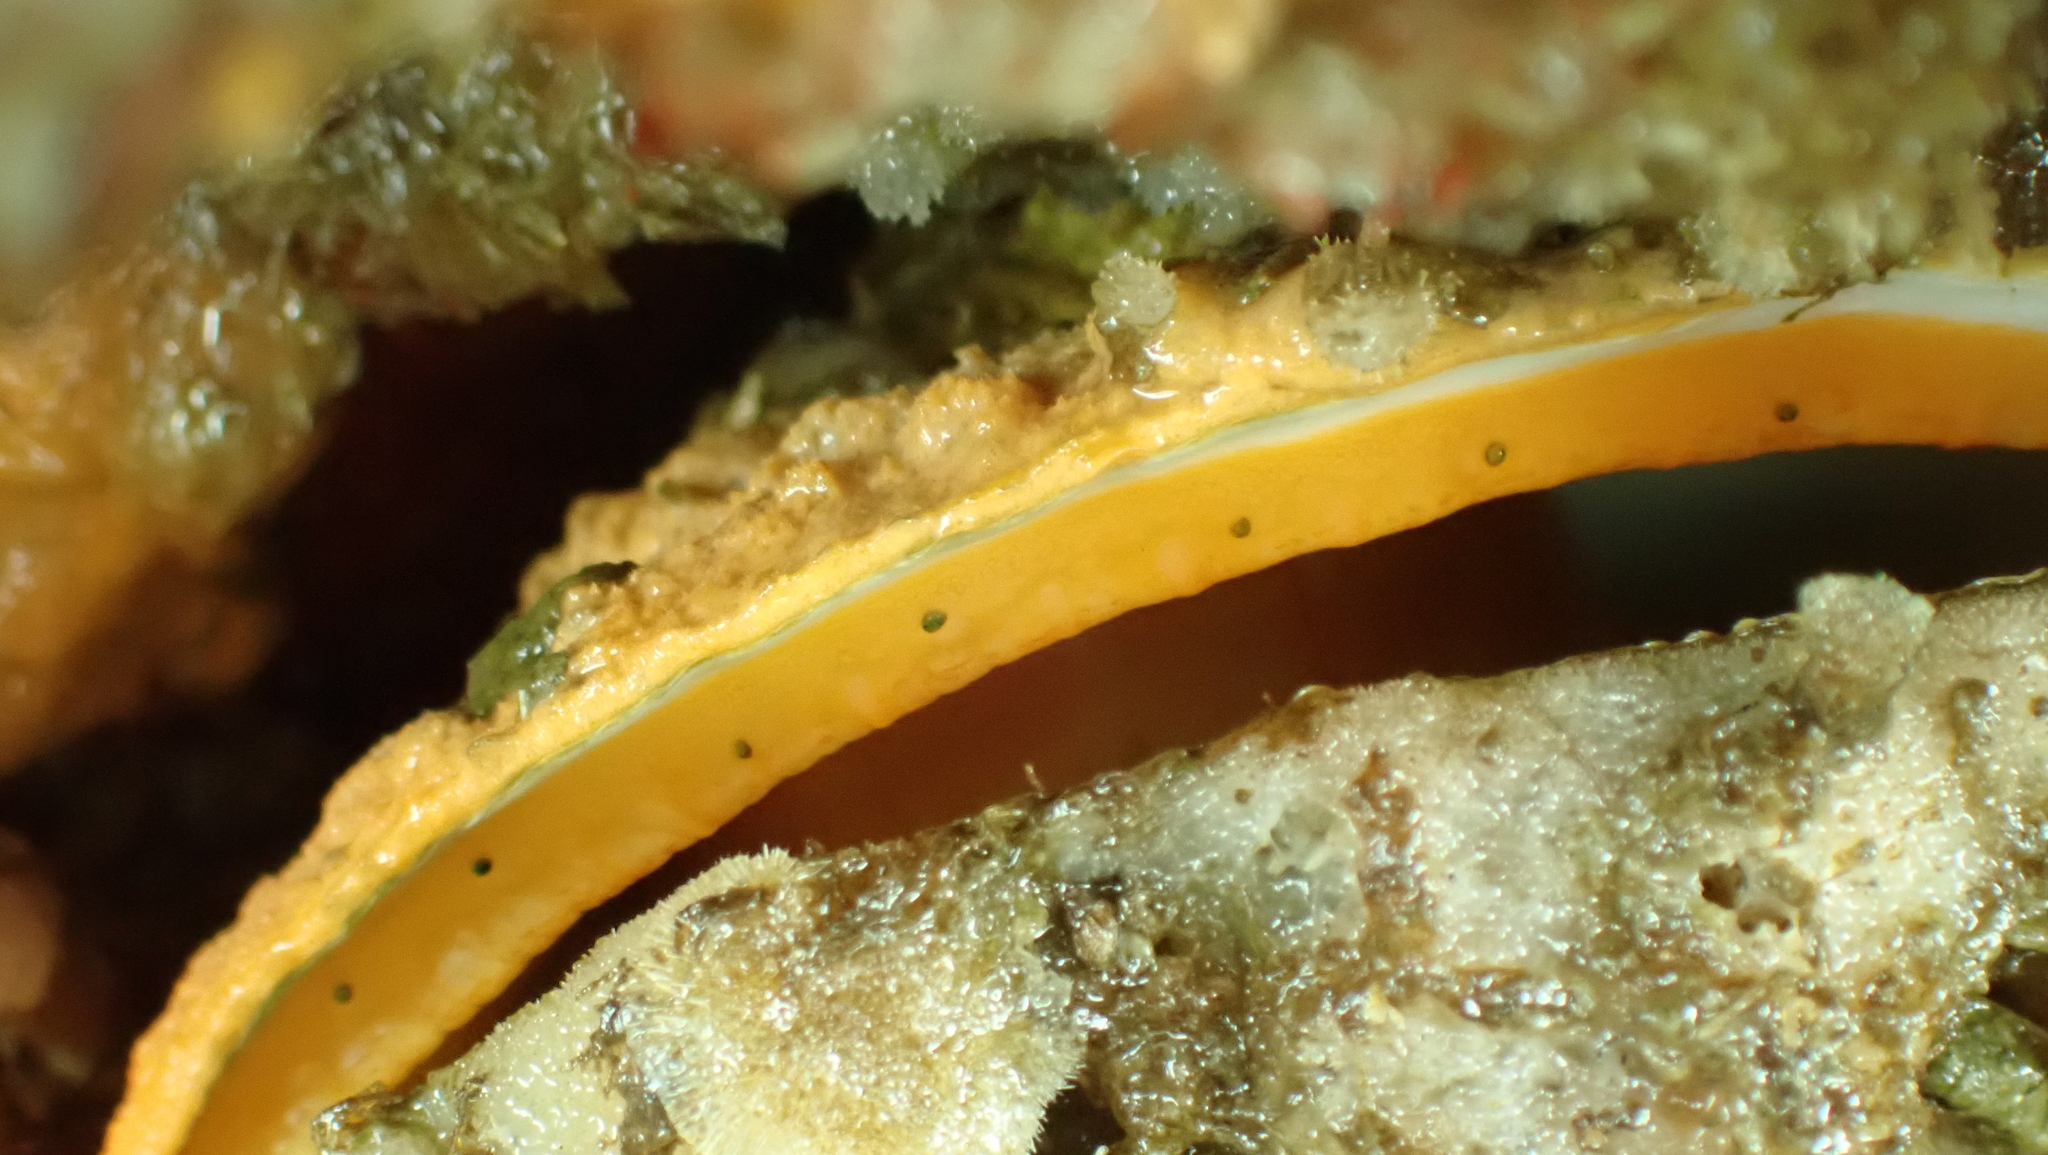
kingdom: Animalia
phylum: Mollusca
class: Bivalvia
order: Pectinida
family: Pectinidae
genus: Crassadoma
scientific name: Crassadoma gigantea
